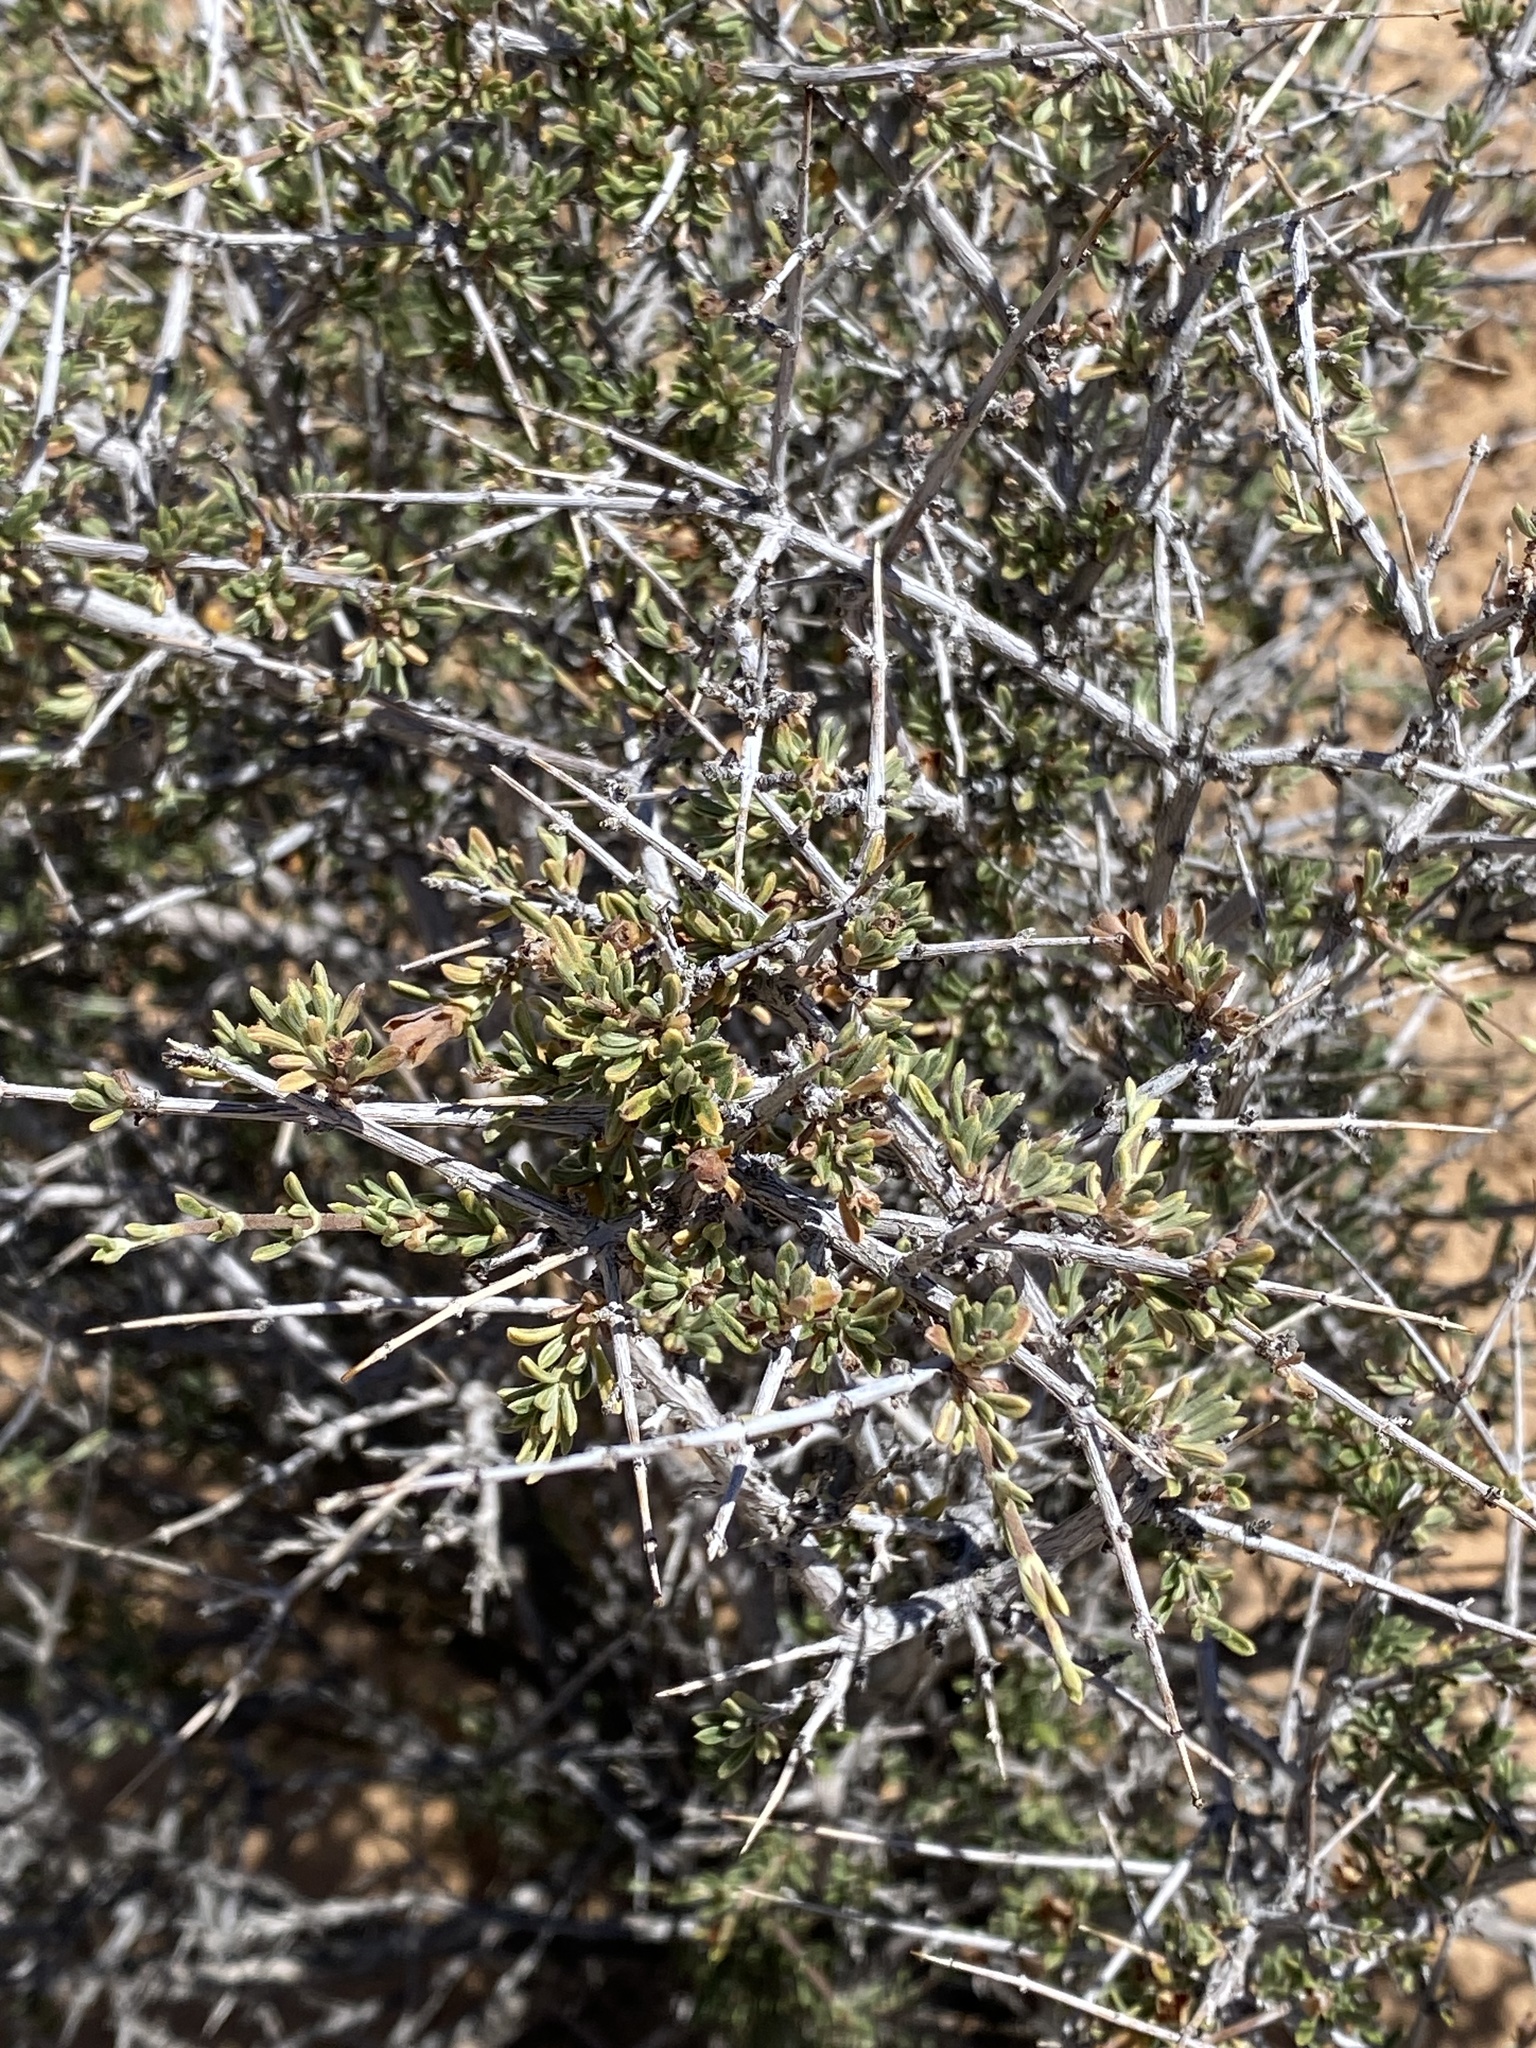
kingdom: Plantae
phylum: Tracheophyta
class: Magnoliopsida
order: Rosales
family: Rosaceae
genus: Coleogyne
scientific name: Coleogyne ramosissima
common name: Blackbrush
